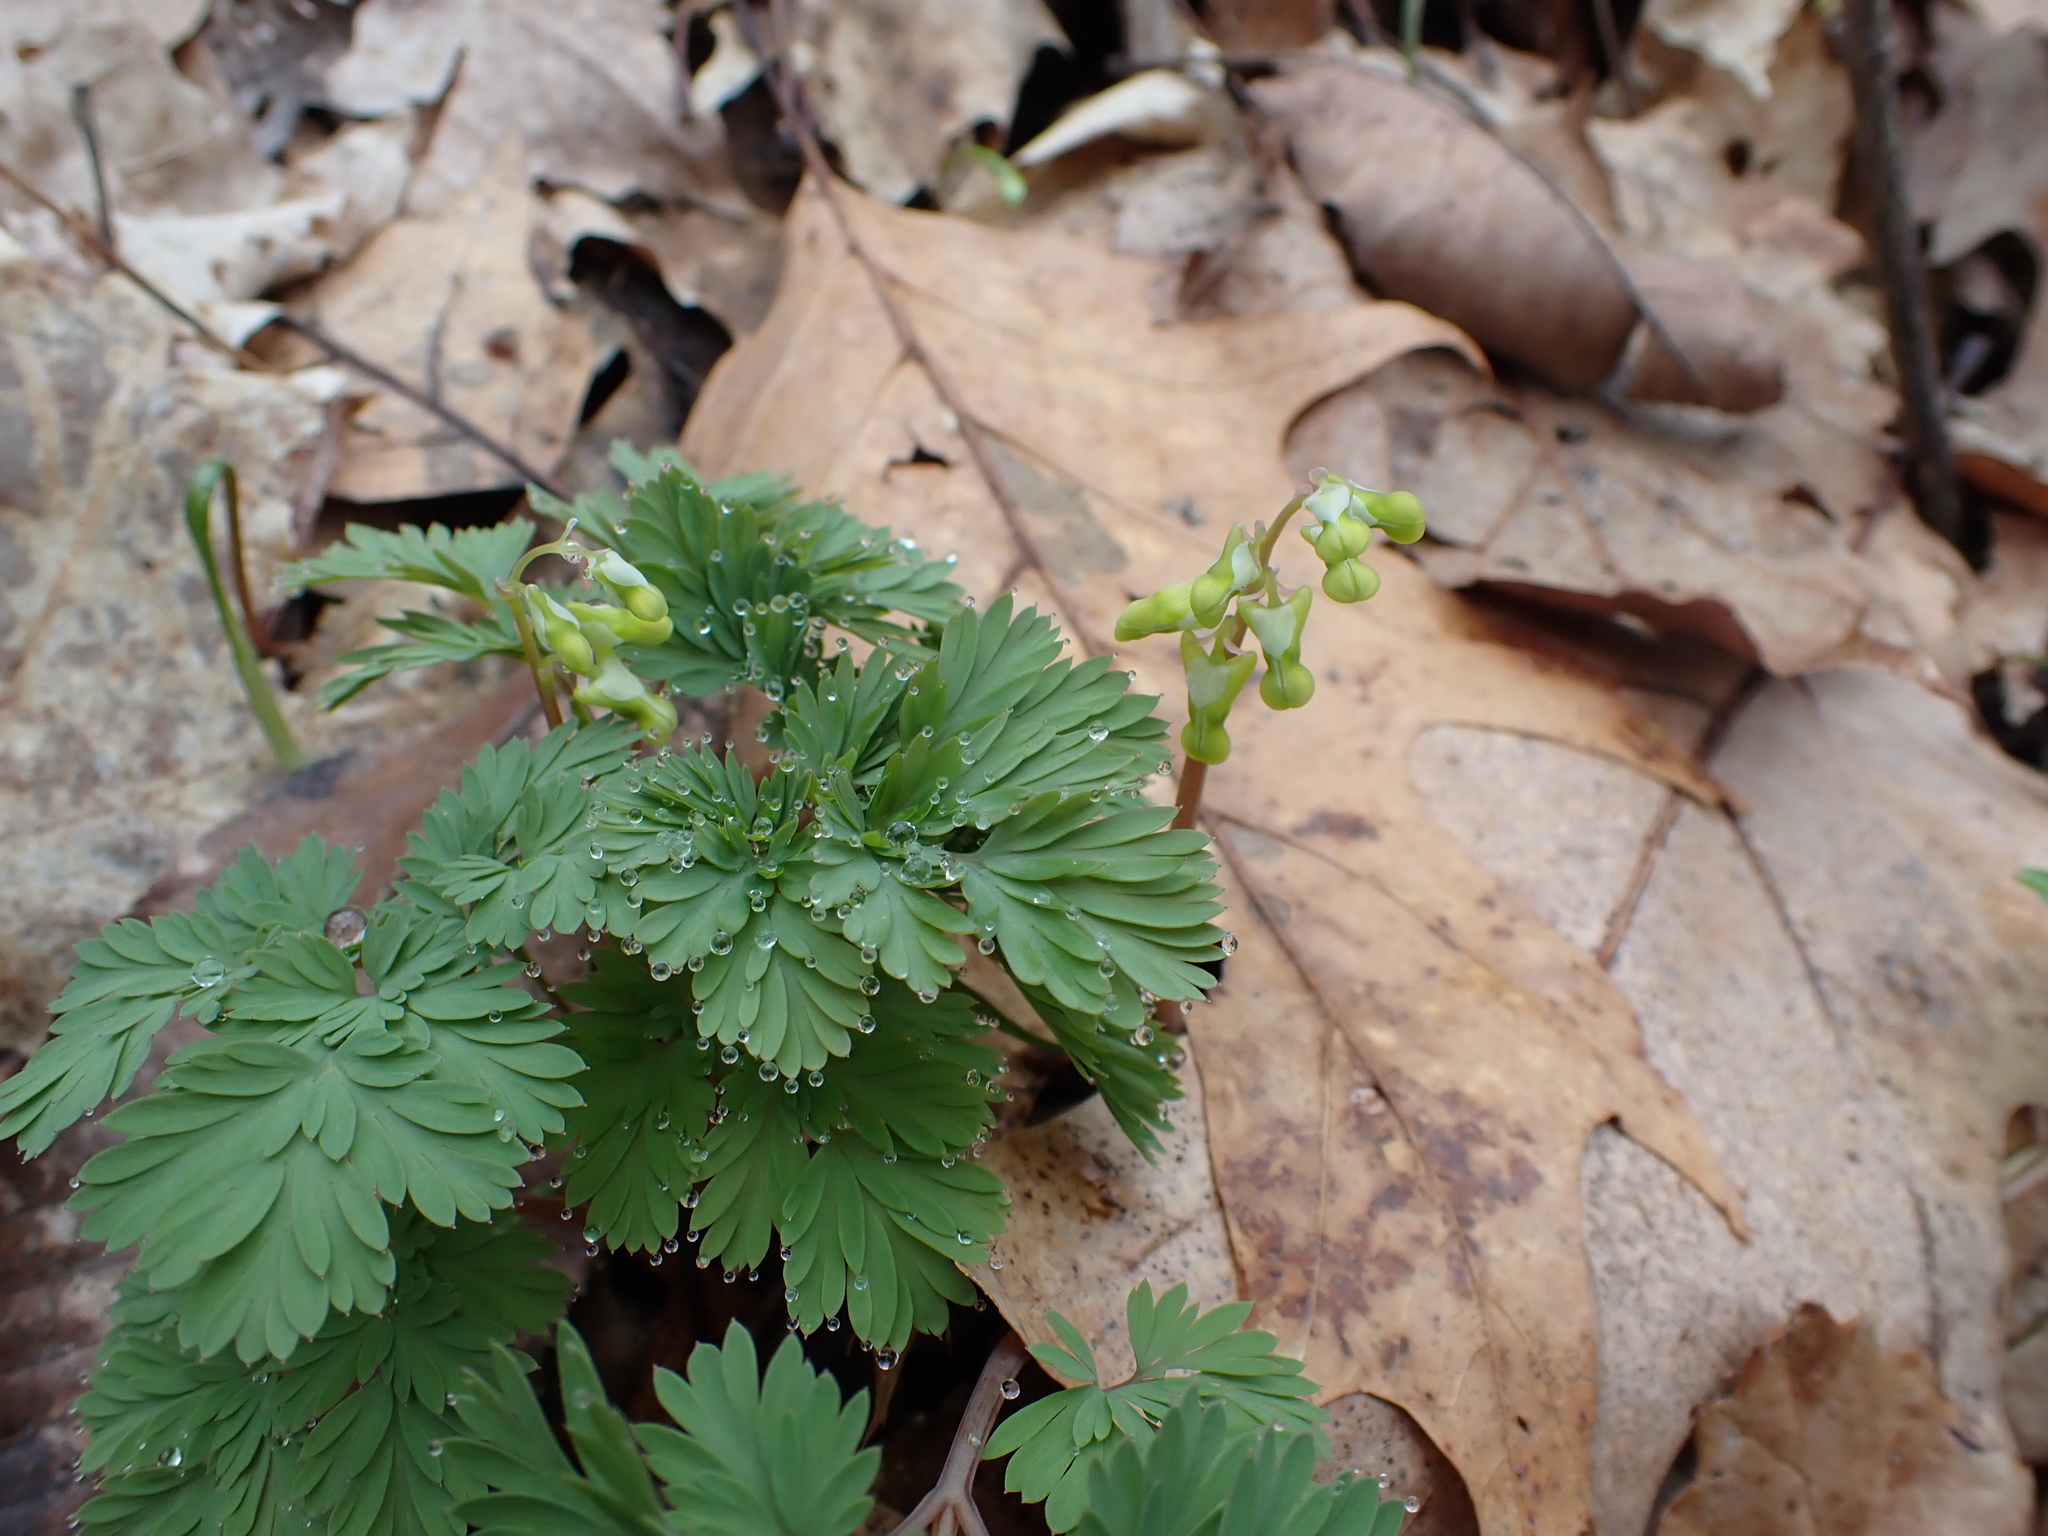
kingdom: Plantae
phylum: Tracheophyta
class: Magnoliopsida
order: Ranunculales
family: Papaveraceae
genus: Dicentra
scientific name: Dicentra cucullaria
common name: Dutchman's breeches
